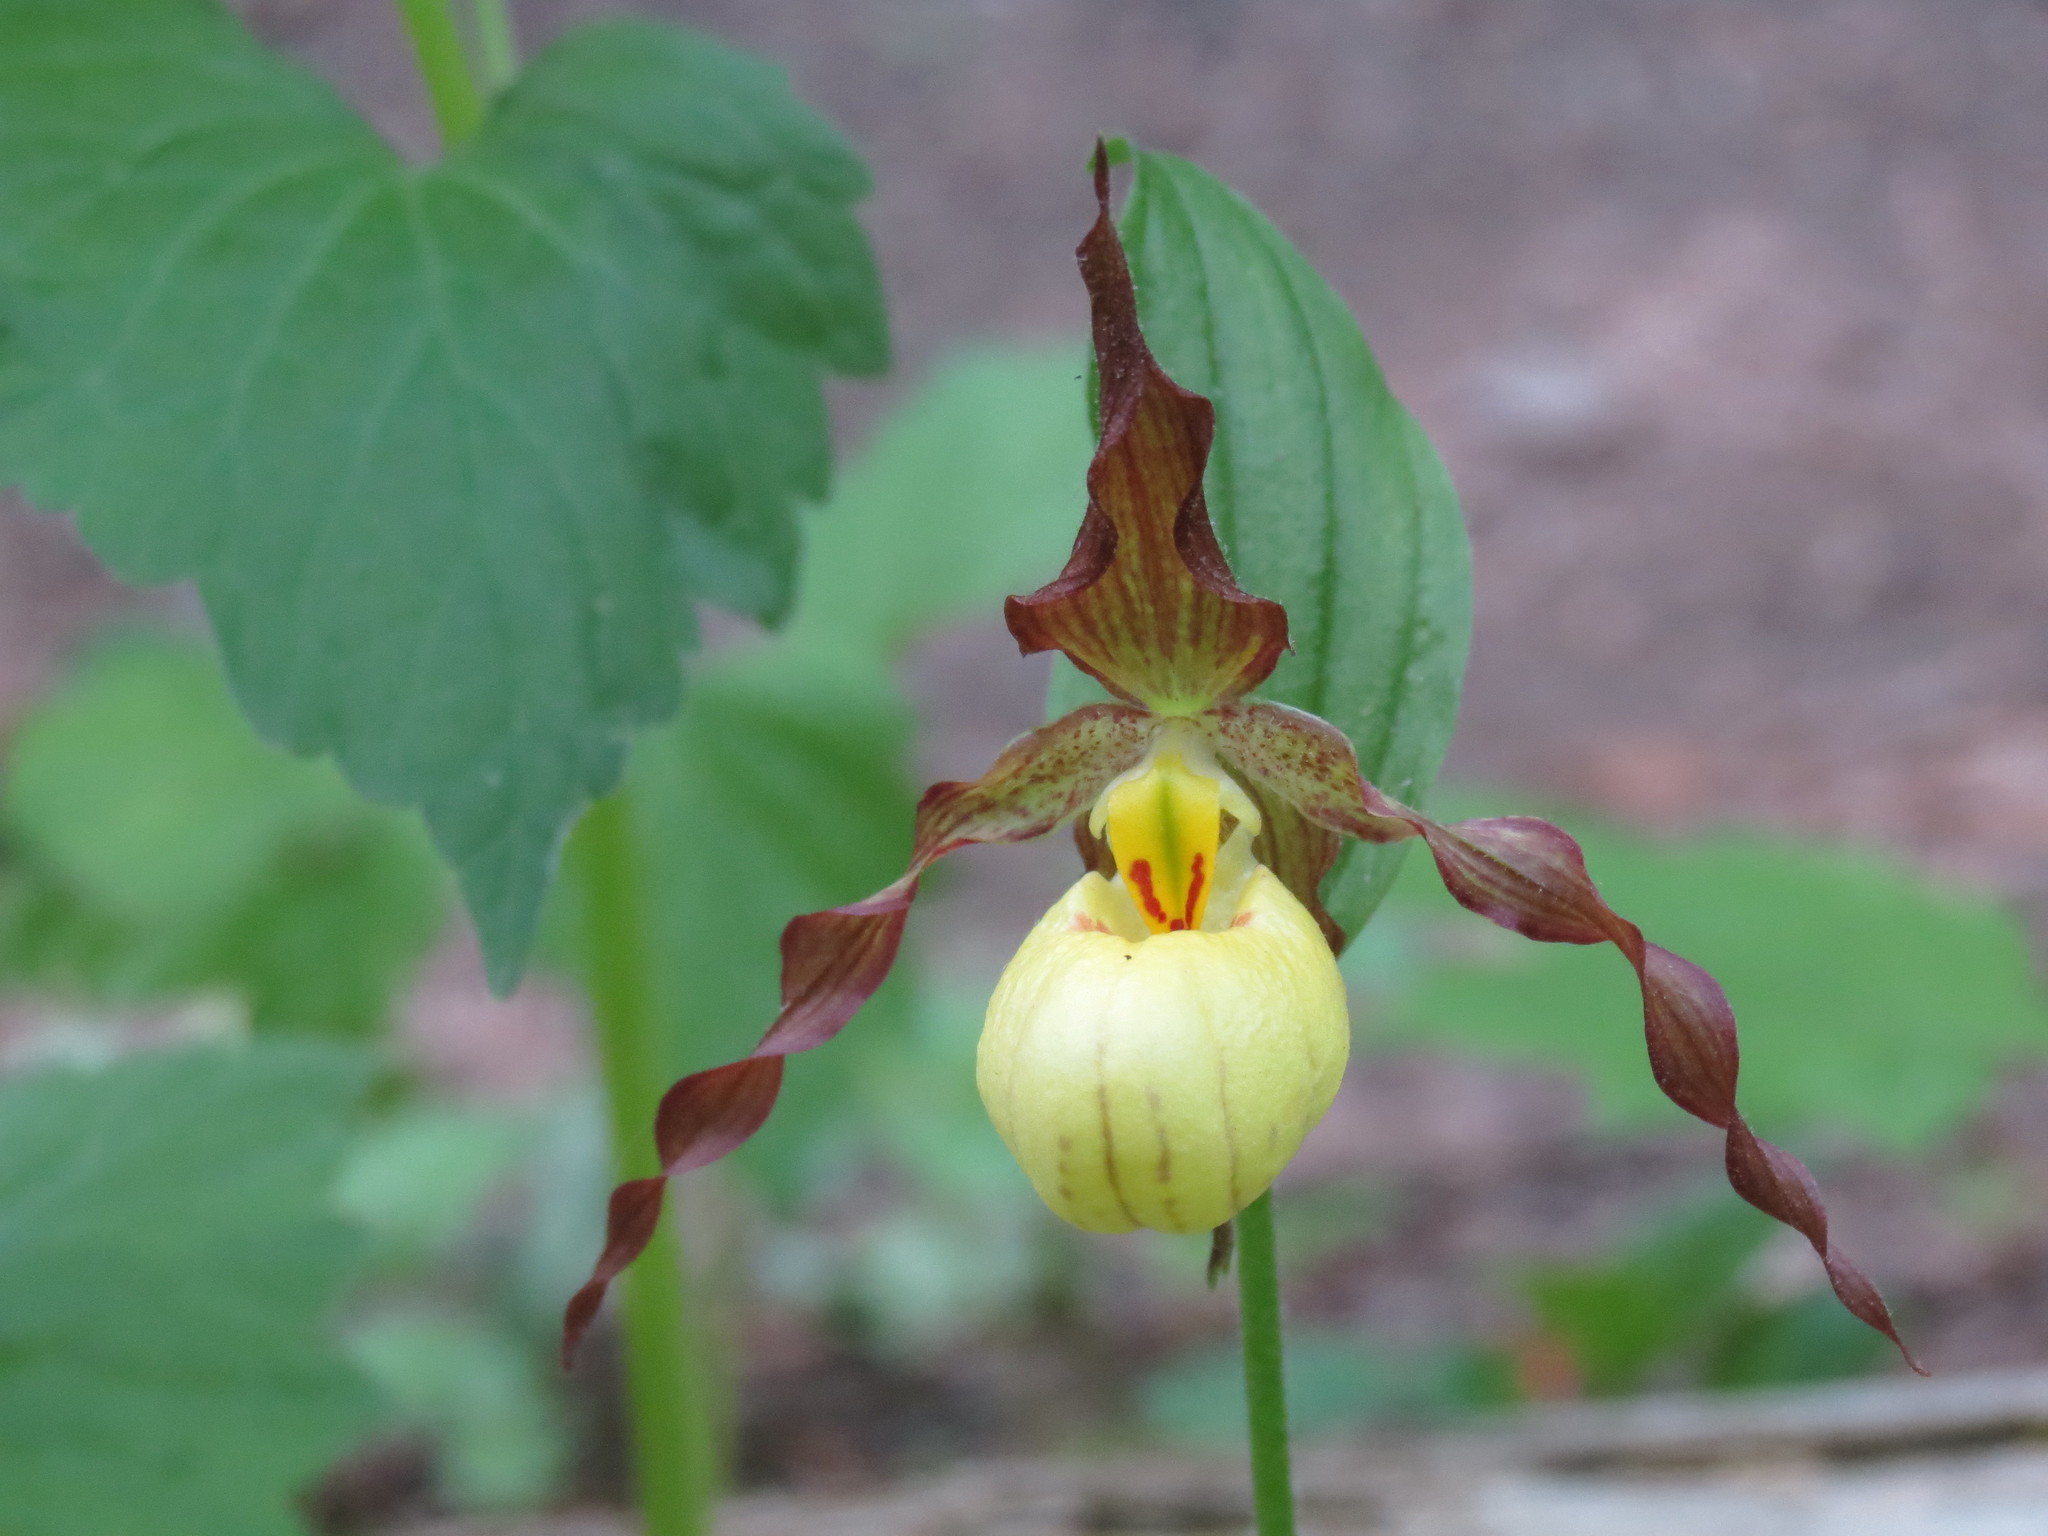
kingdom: Plantae
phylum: Tracheophyta
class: Liliopsida
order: Asparagales
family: Orchidaceae
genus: Cypripedium
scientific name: Cypripedium parviflorum
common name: American yellow lady's-slipper
